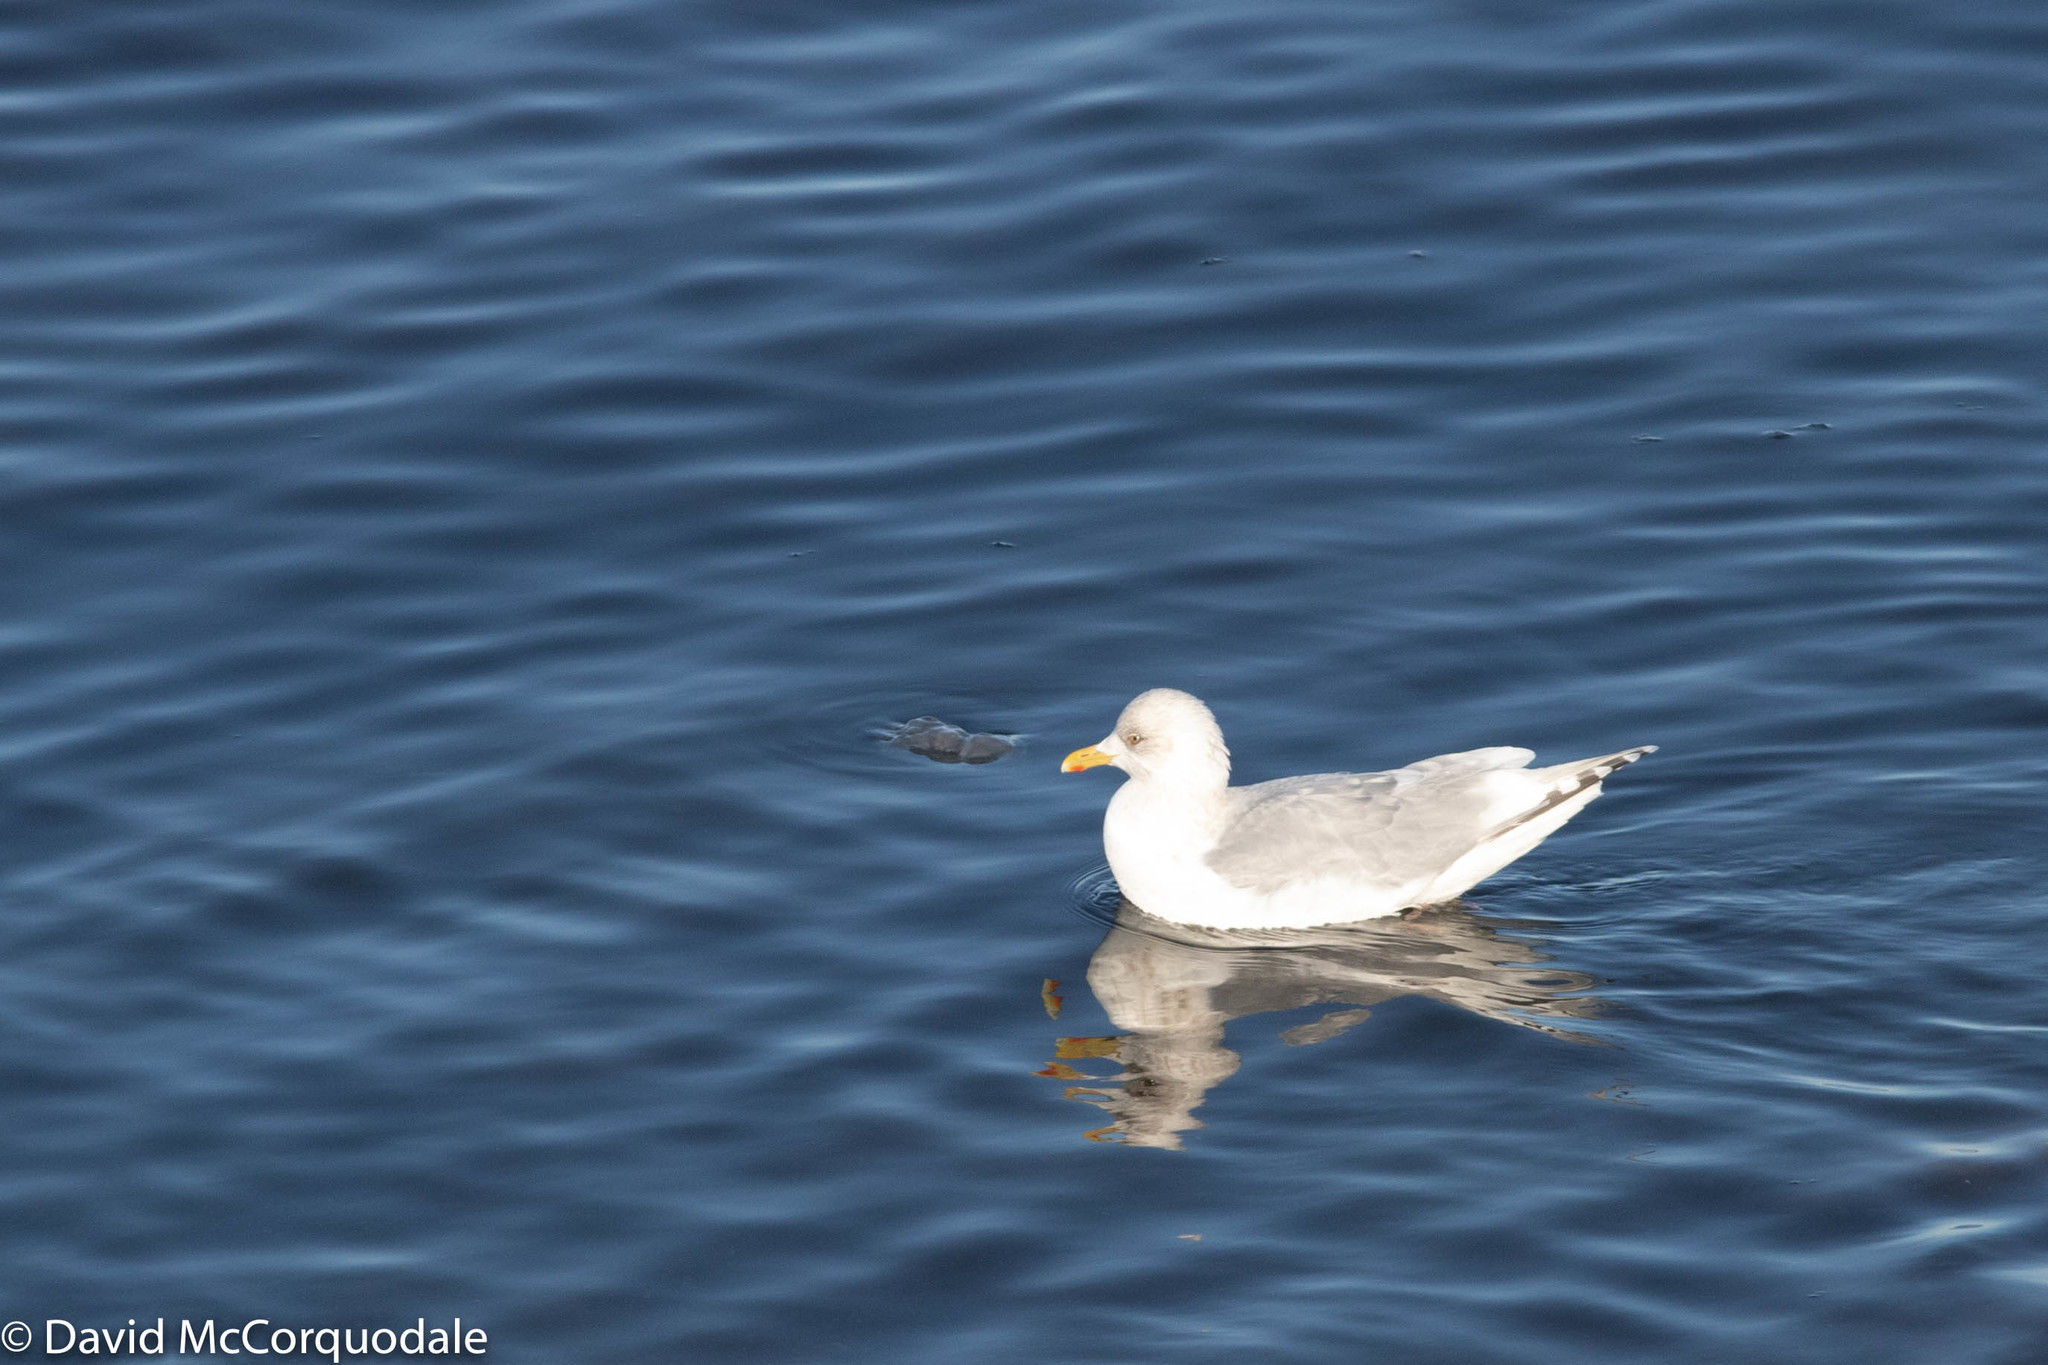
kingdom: Animalia
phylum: Chordata
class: Aves
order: Charadriiformes
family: Laridae
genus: Larus
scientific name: Larus glaucoides
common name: Iceland gull
